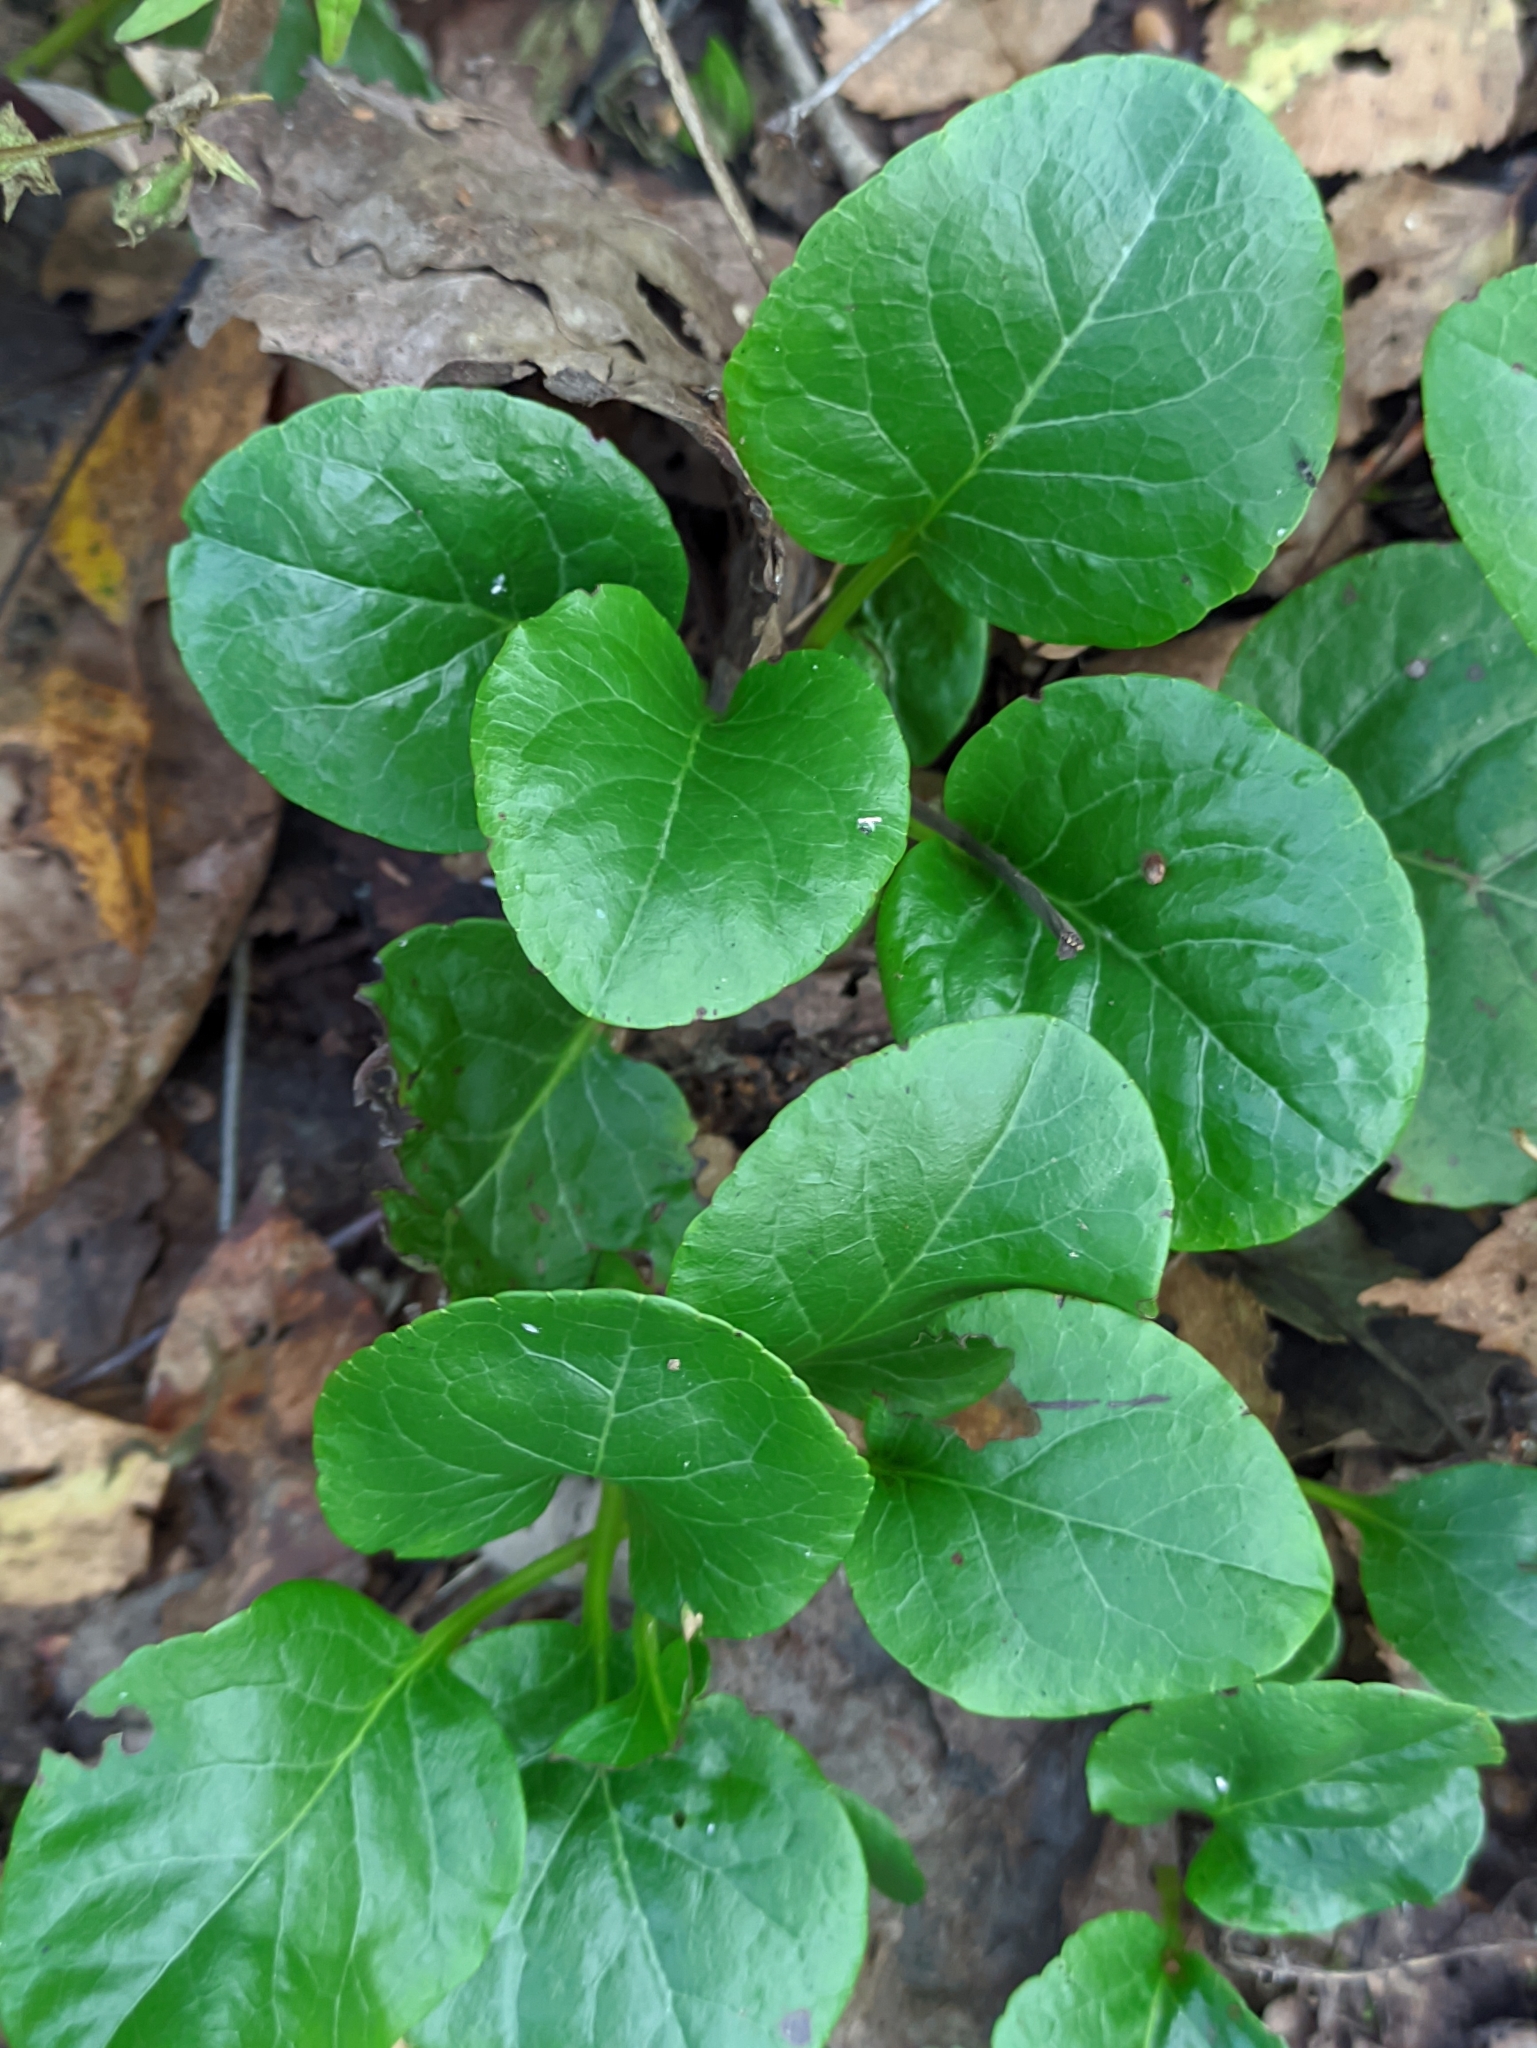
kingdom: Plantae
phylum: Tracheophyta
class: Magnoliopsida
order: Ericales
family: Ericaceae
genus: Pyrola
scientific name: Pyrola rotundifolia
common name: Round-leaved wintergreen
